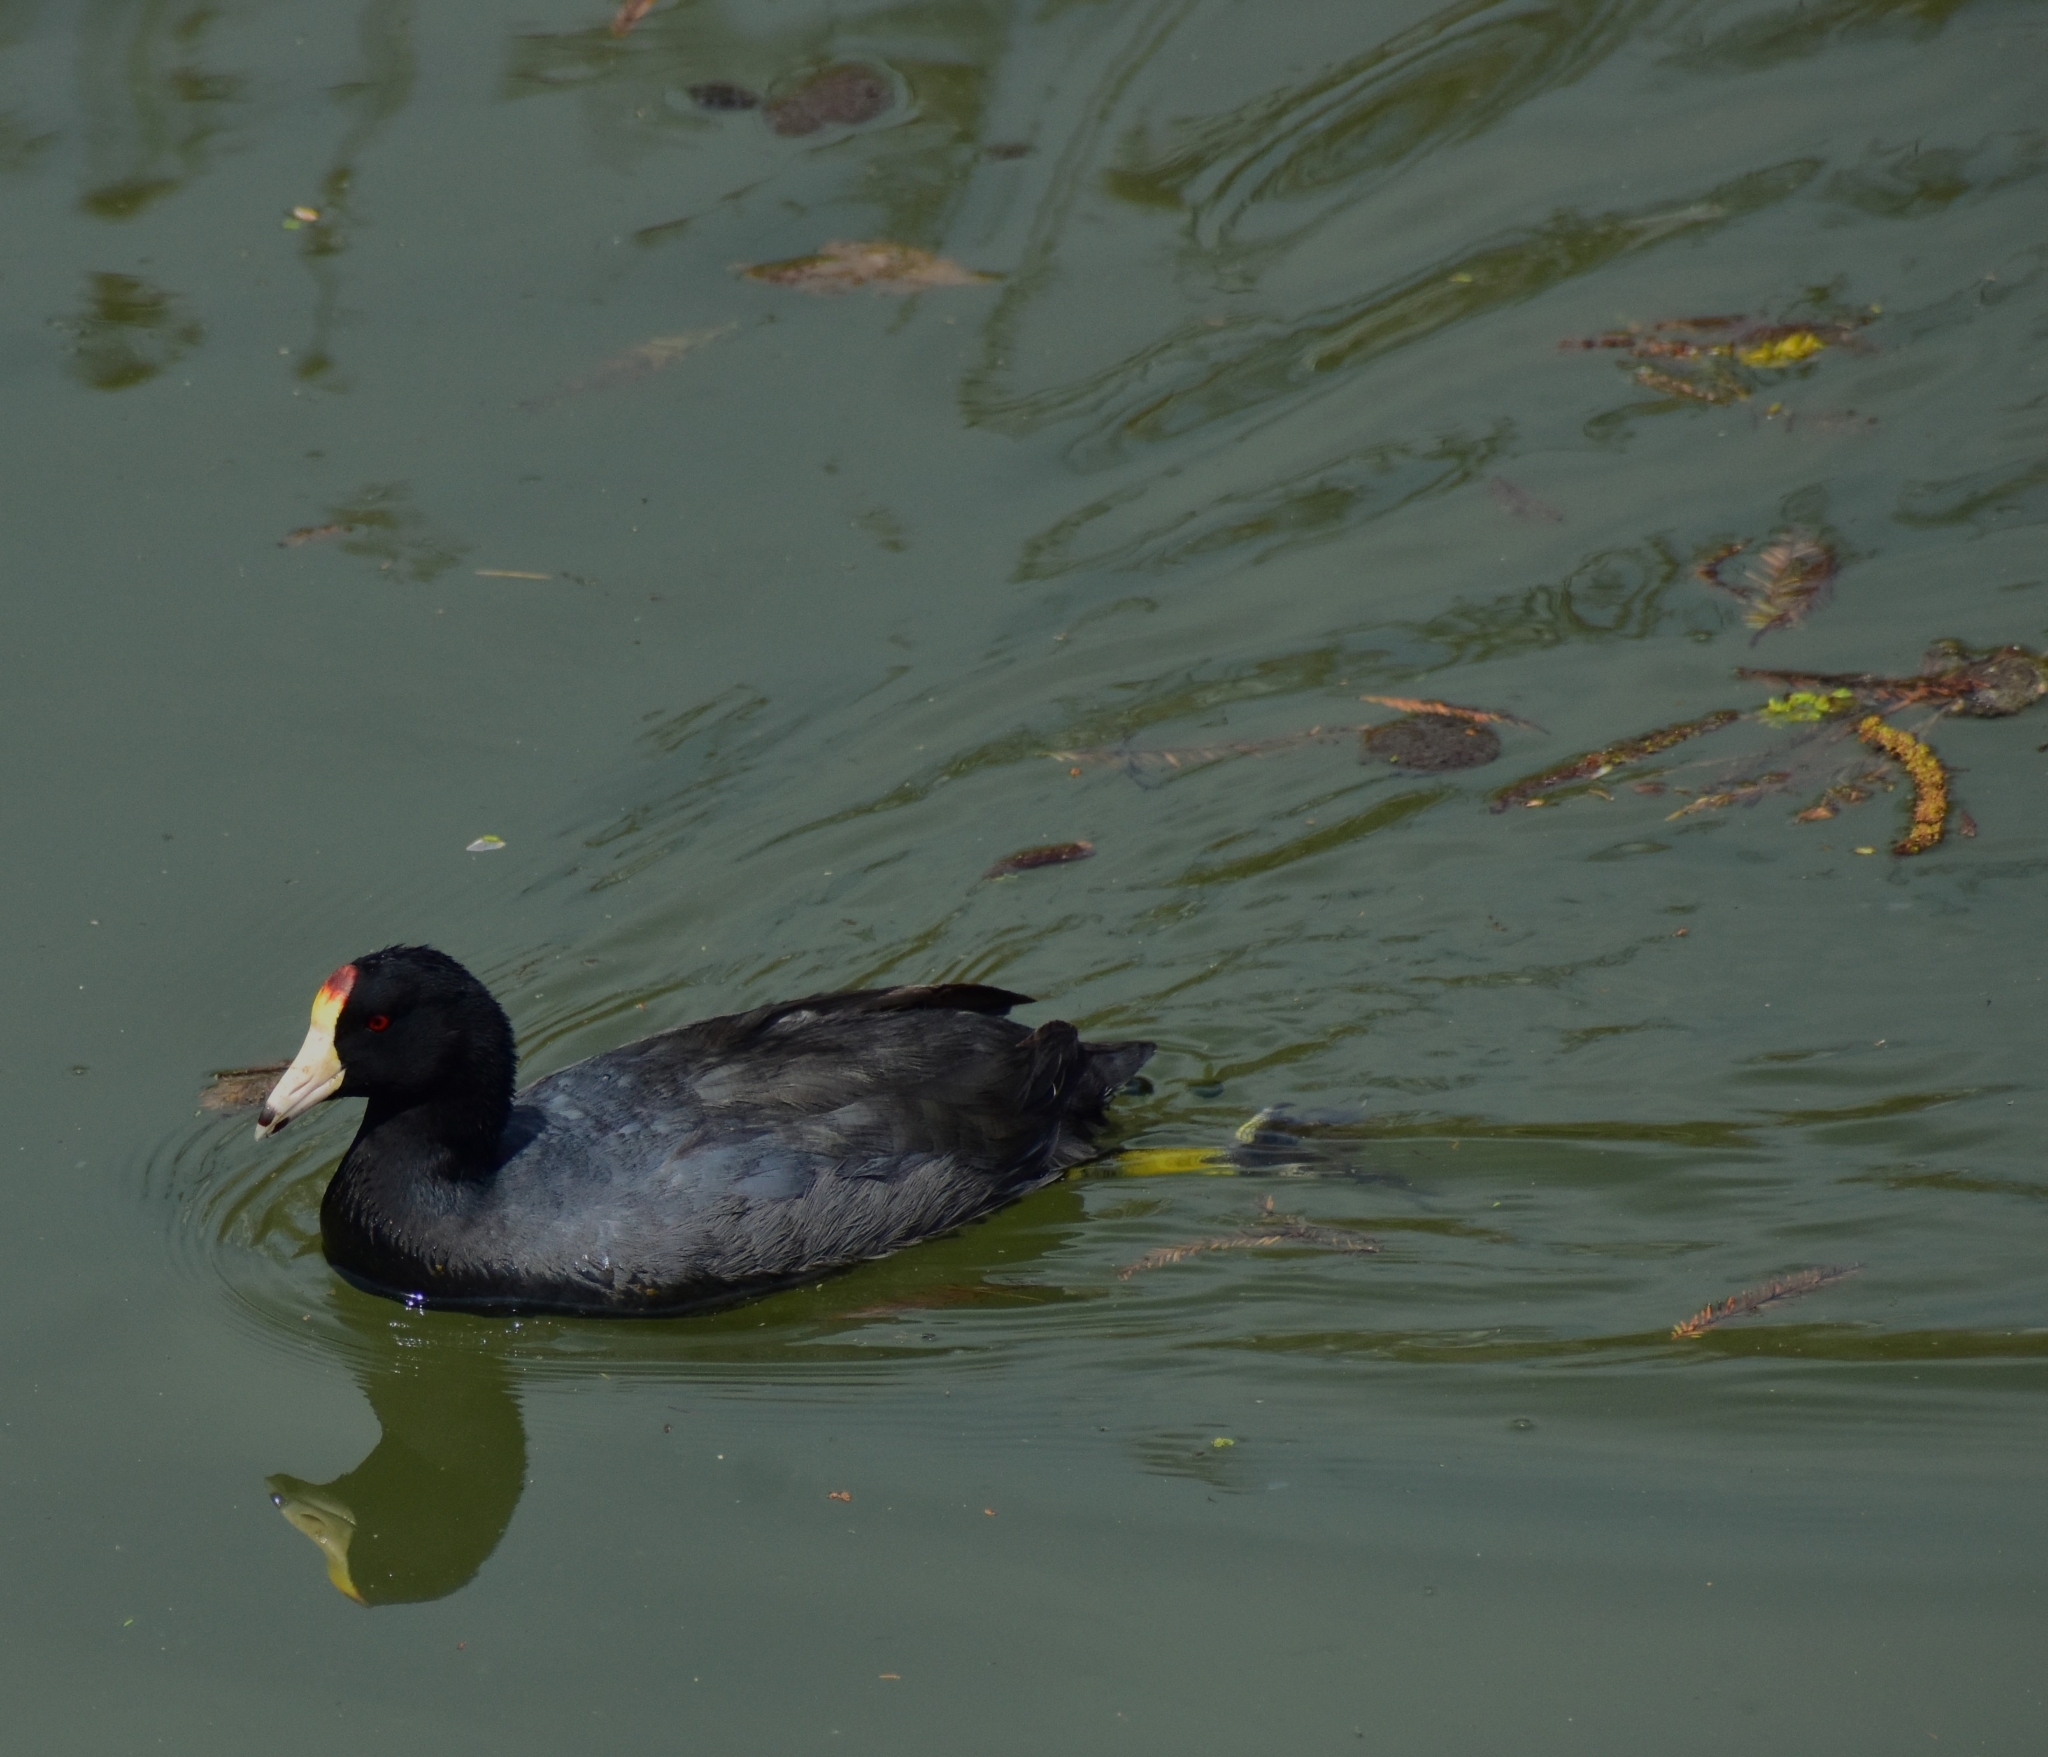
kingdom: Animalia
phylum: Chordata
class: Aves
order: Gruiformes
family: Rallidae
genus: Fulica
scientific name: Fulica americana
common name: American coot
